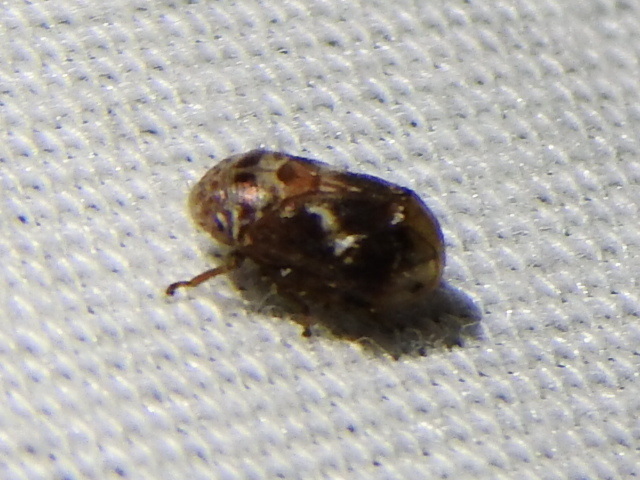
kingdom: Animalia
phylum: Arthropoda
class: Insecta
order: Hemiptera
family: Clastopteridae
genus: Clastoptera
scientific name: Clastoptera
